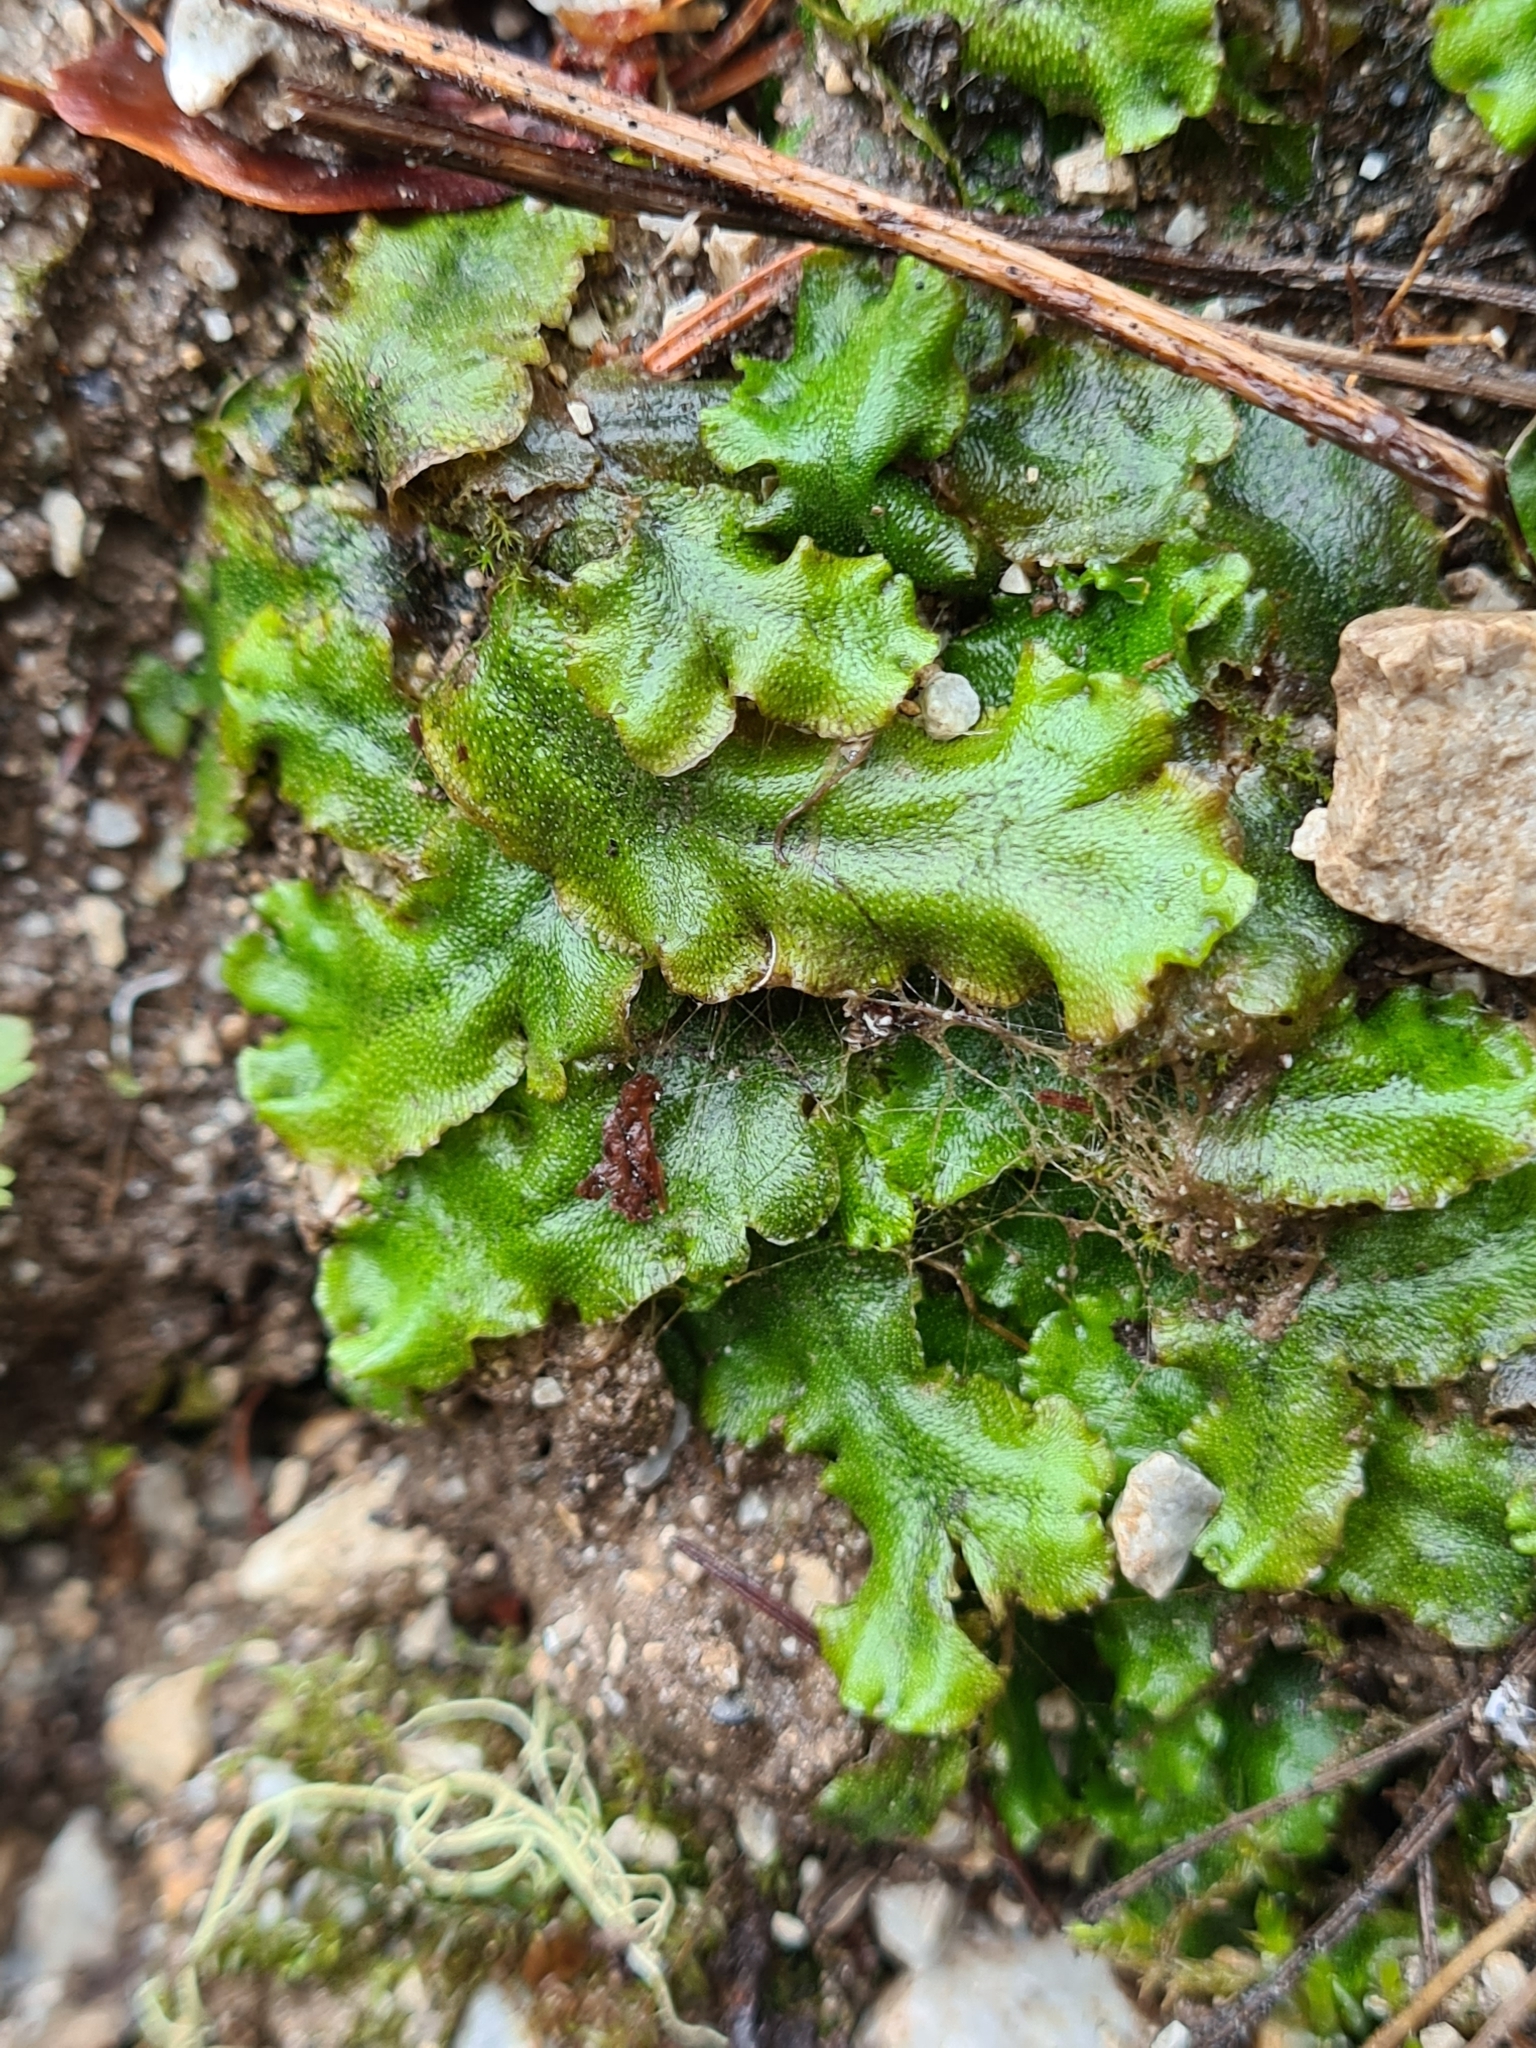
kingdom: Plantae
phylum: Marchantiophyta
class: Marchantiopsida
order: Marchantiales
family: Marchantiaceae
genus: Marchantia
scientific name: Marchantia polymorpha
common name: Common liverwort
